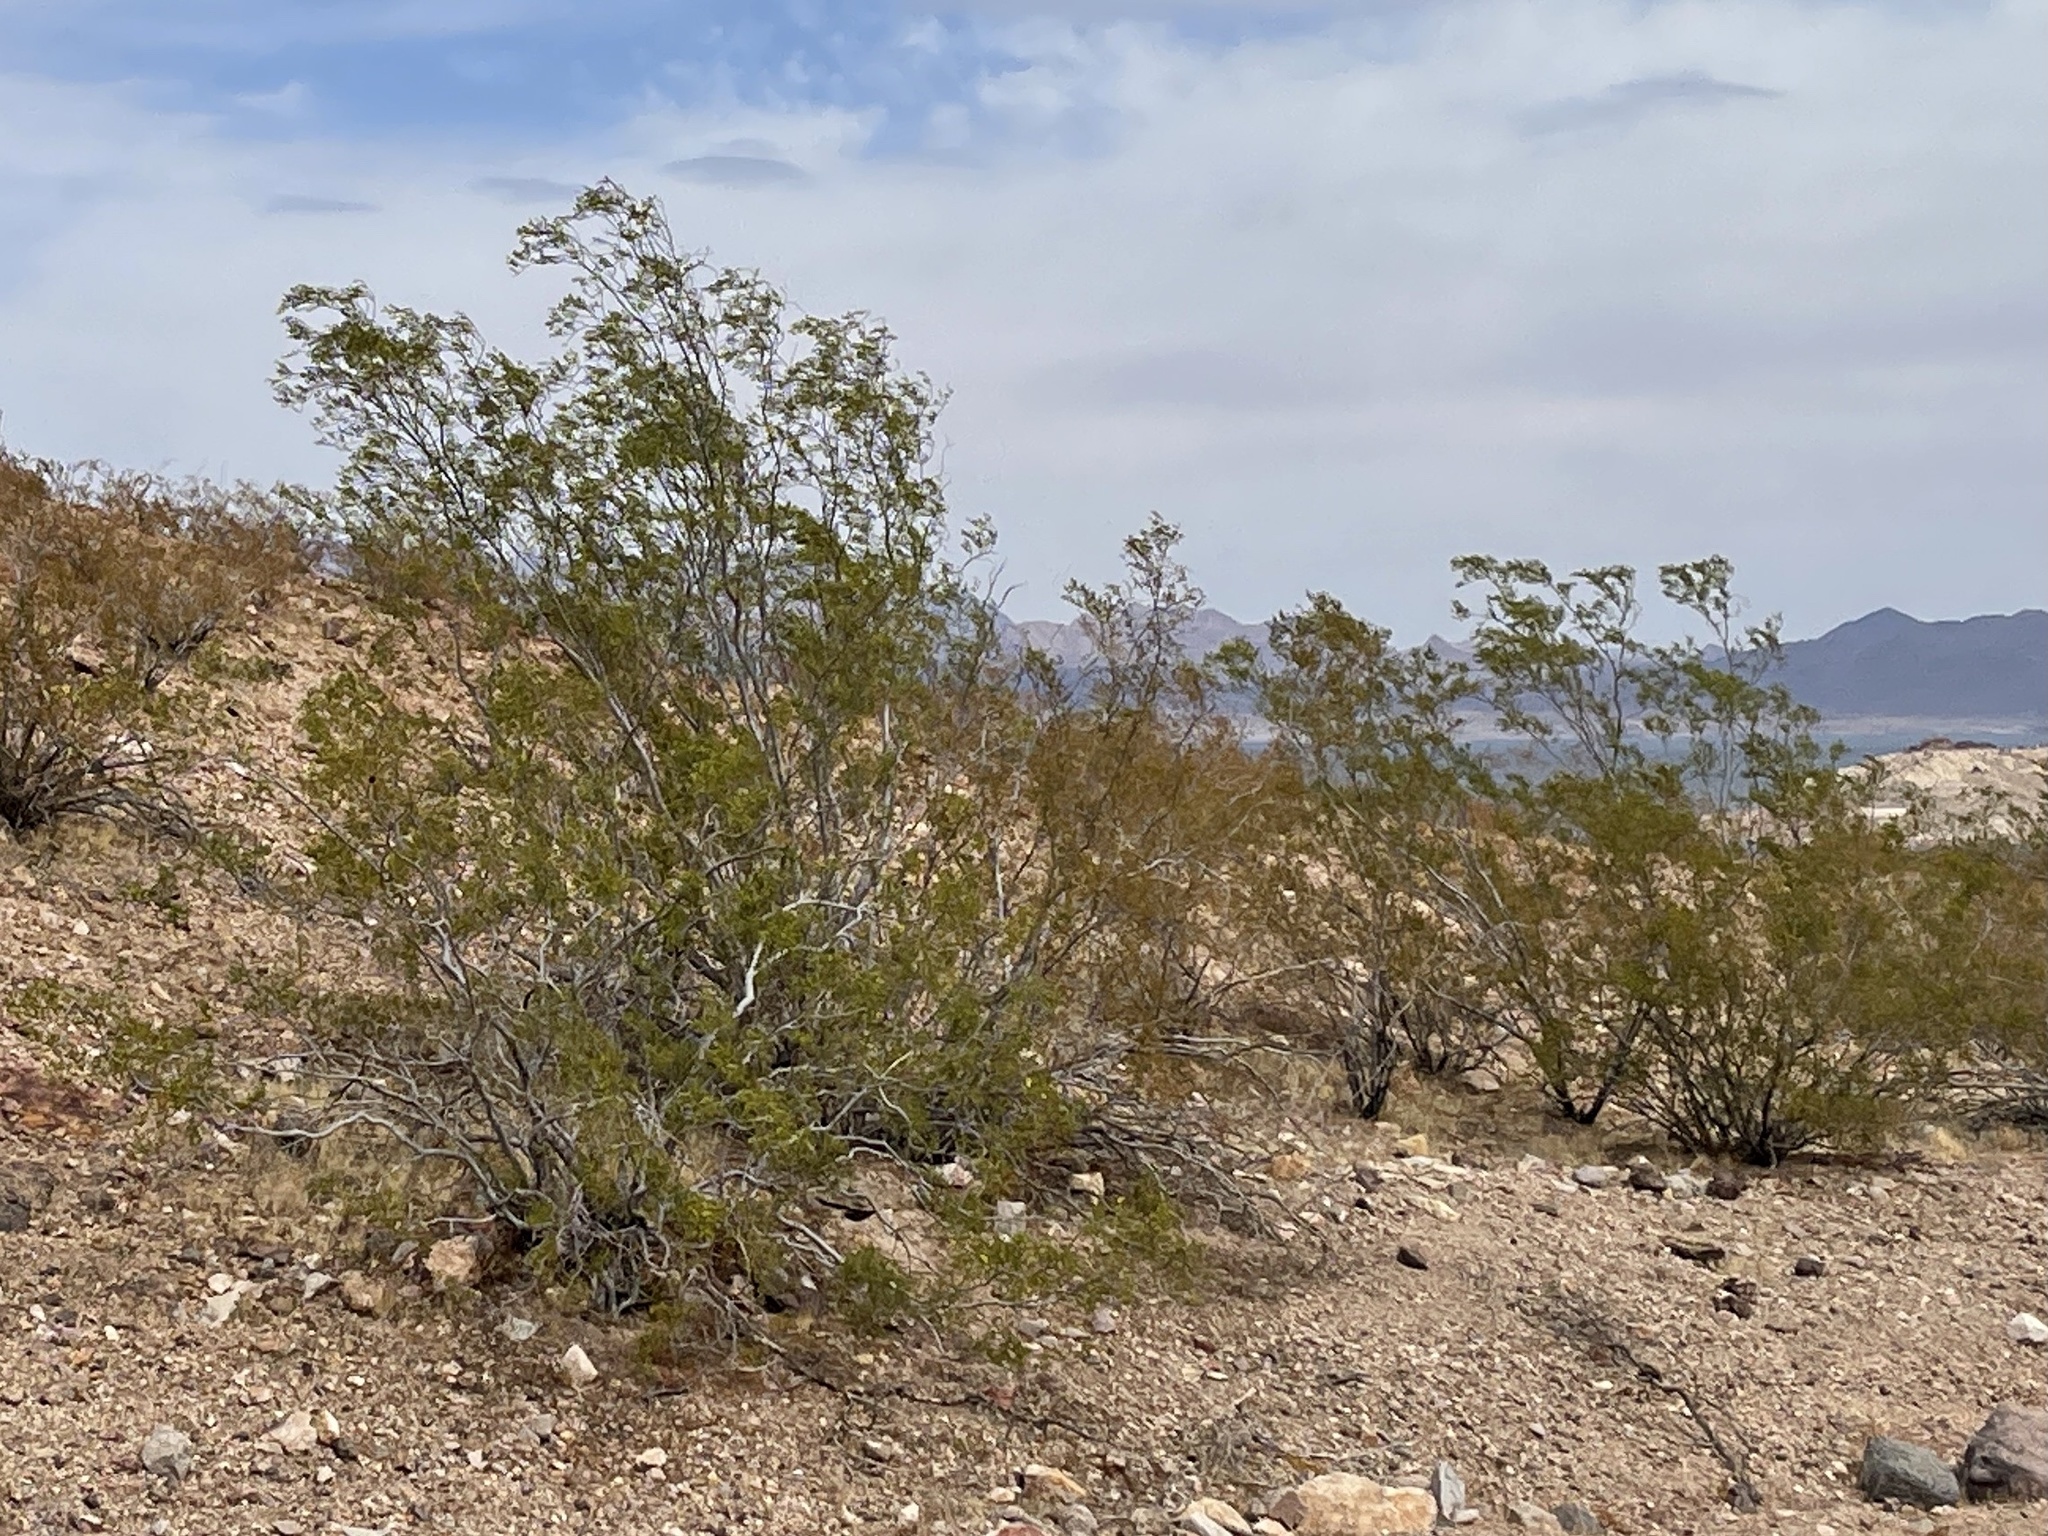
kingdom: Plantae
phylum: Tracheophyta
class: Magnoliopsida
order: Zygophyllales
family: Zygophyllaceae
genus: Larrea
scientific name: Larrea tridentata
